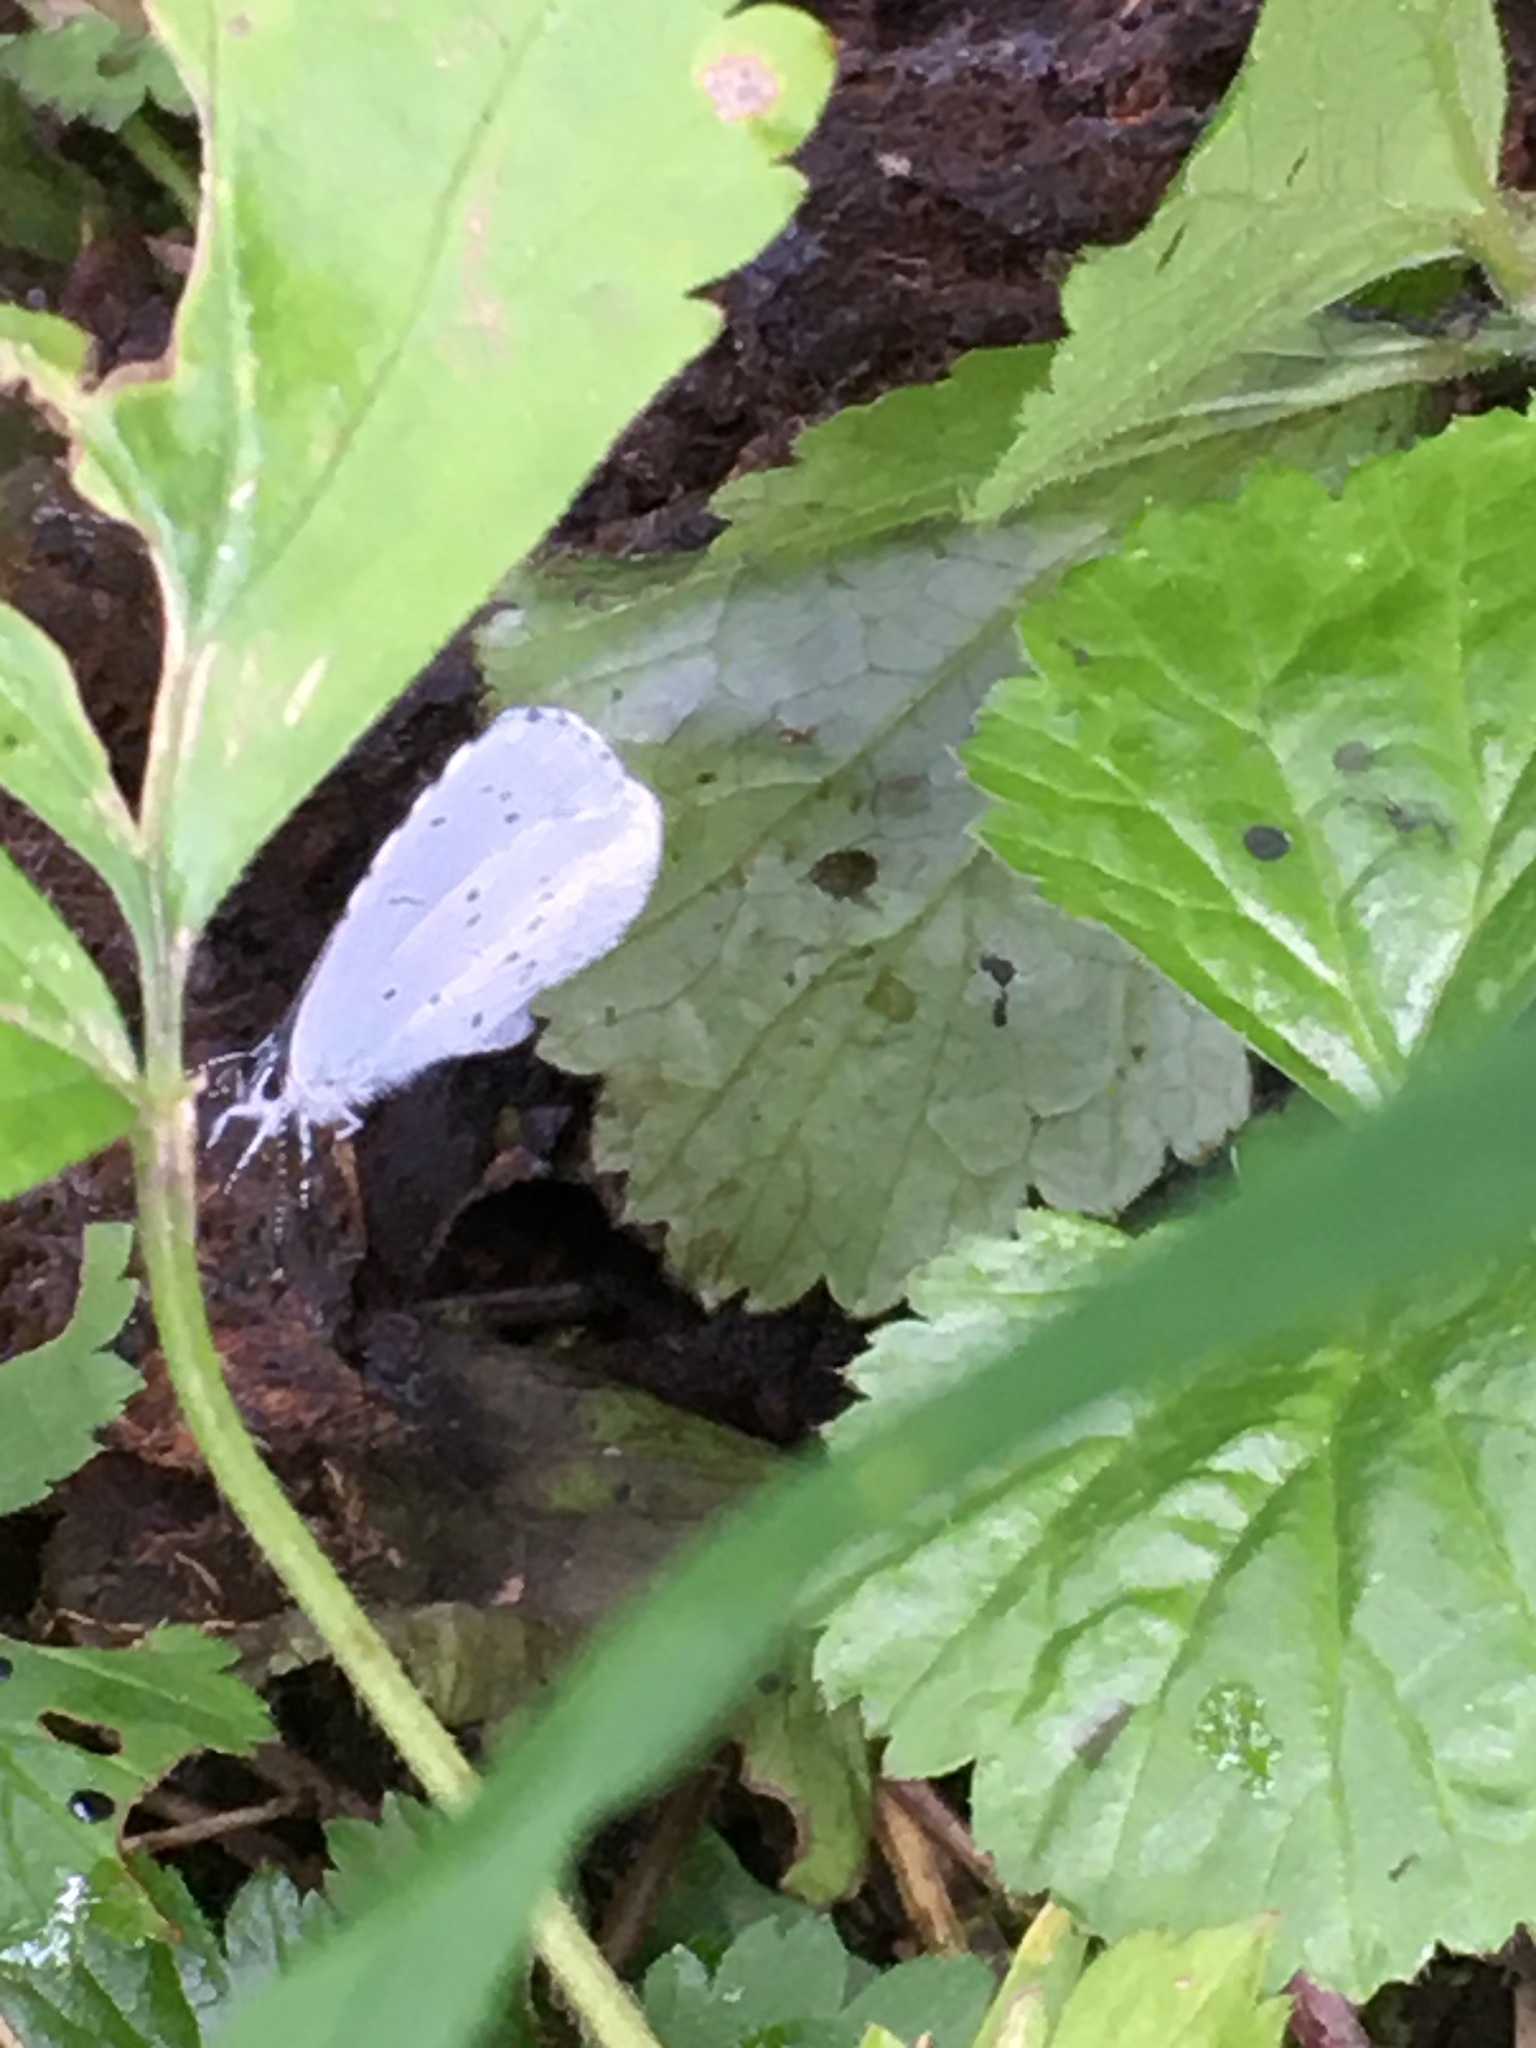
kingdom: Animalia
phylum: Arthropoda
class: Insecta
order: Lepidoptera
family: Lycaenidae
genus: Celastrina
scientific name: Celastrina argiolus
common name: Holly blue
